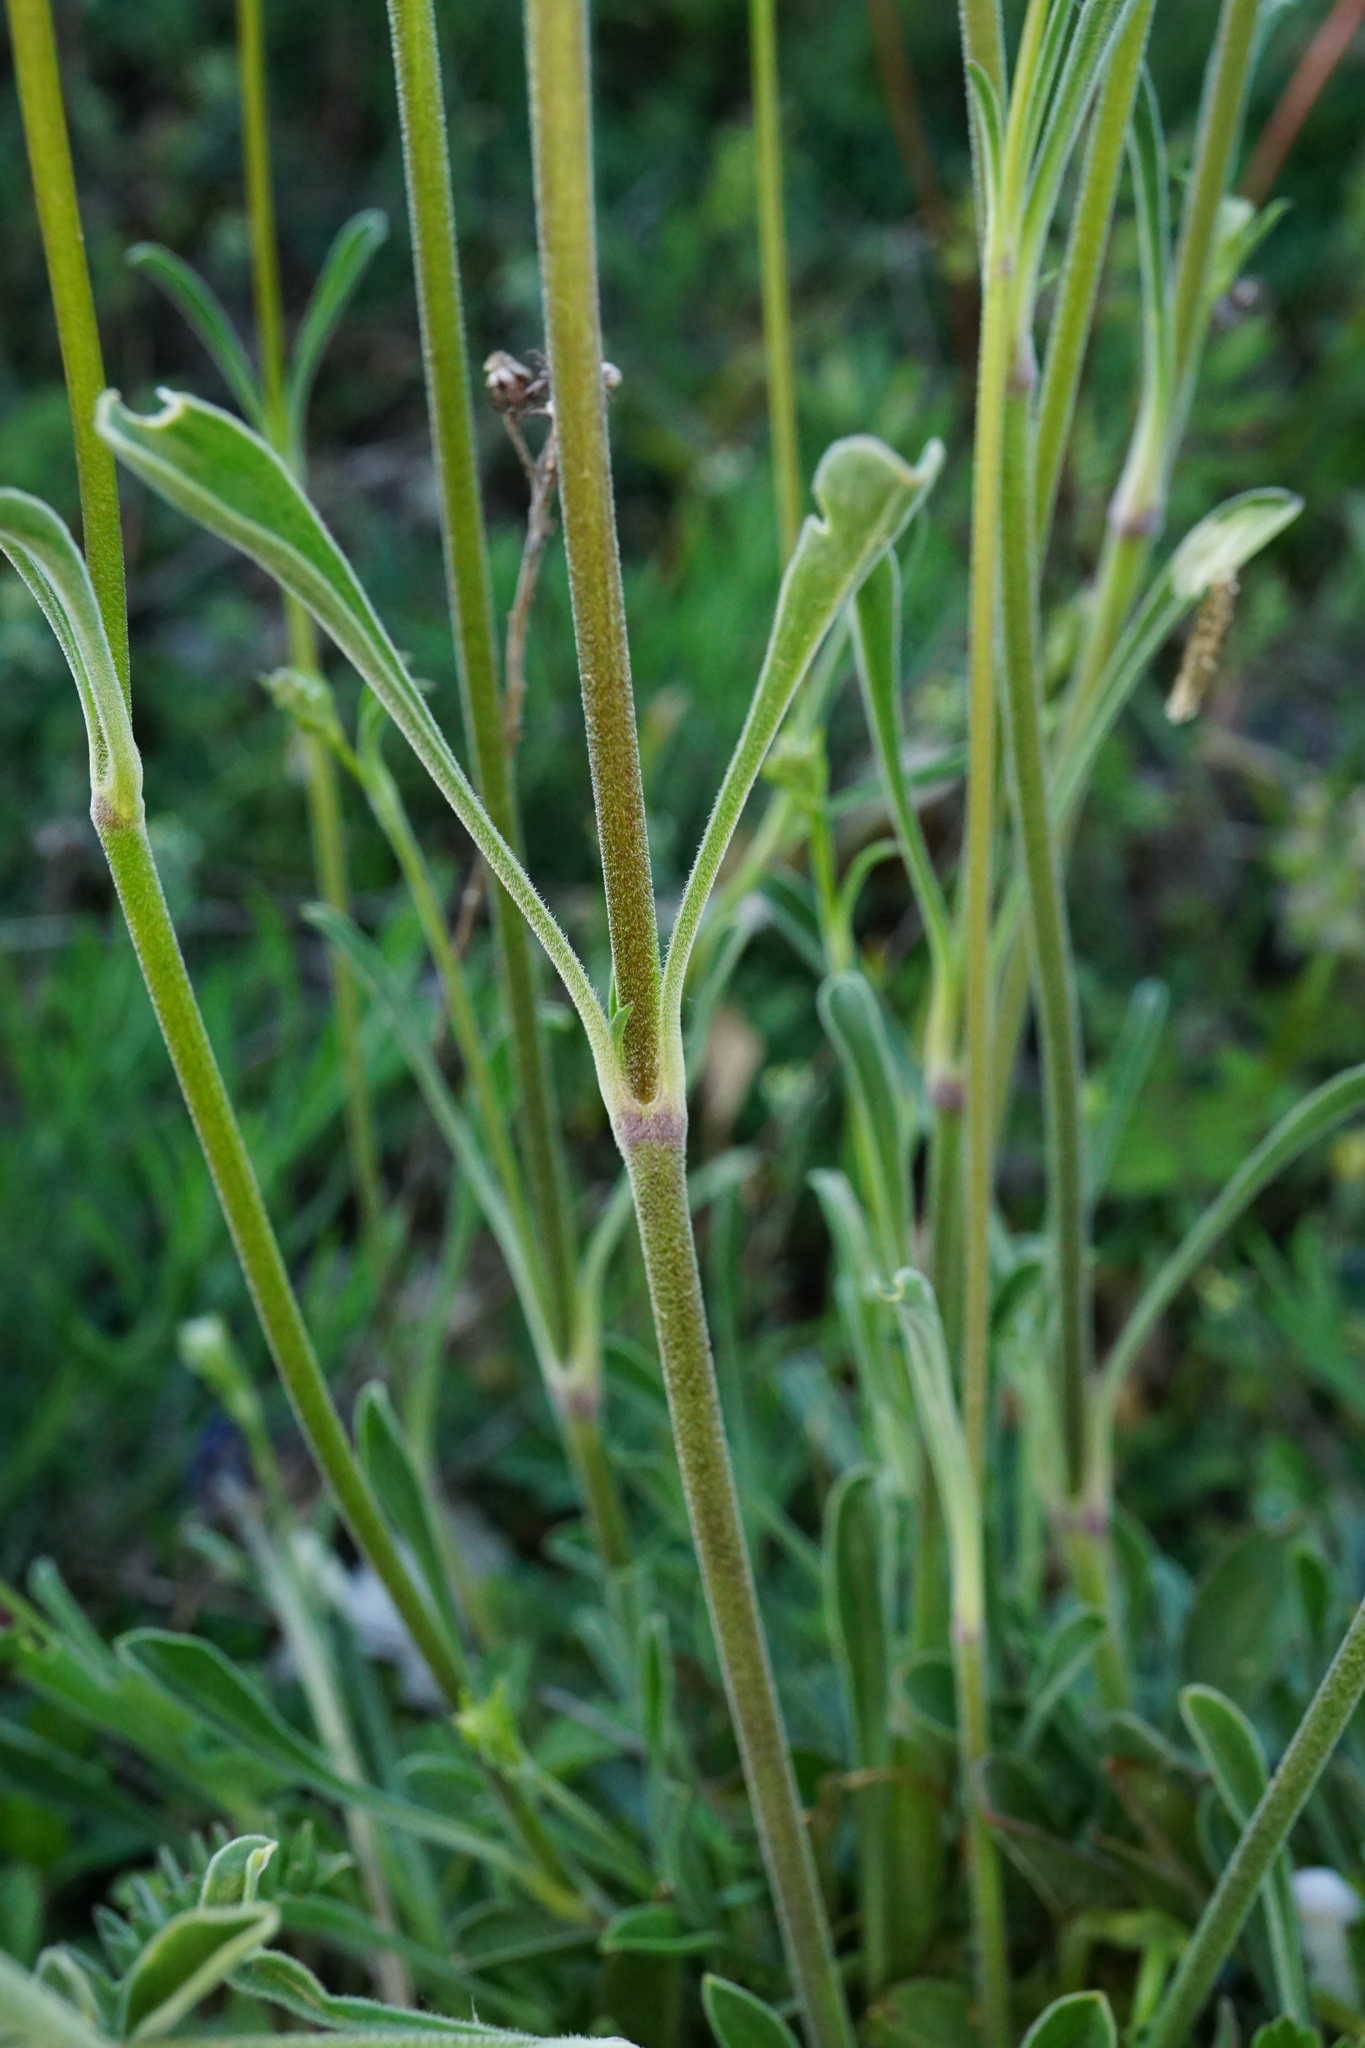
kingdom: Plantae
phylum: Tracheophyta
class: Magnoliopsida
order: Caryophyllales
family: Caryophyllaceae
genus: Silene
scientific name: Silene otites
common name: Spanish catchfly
